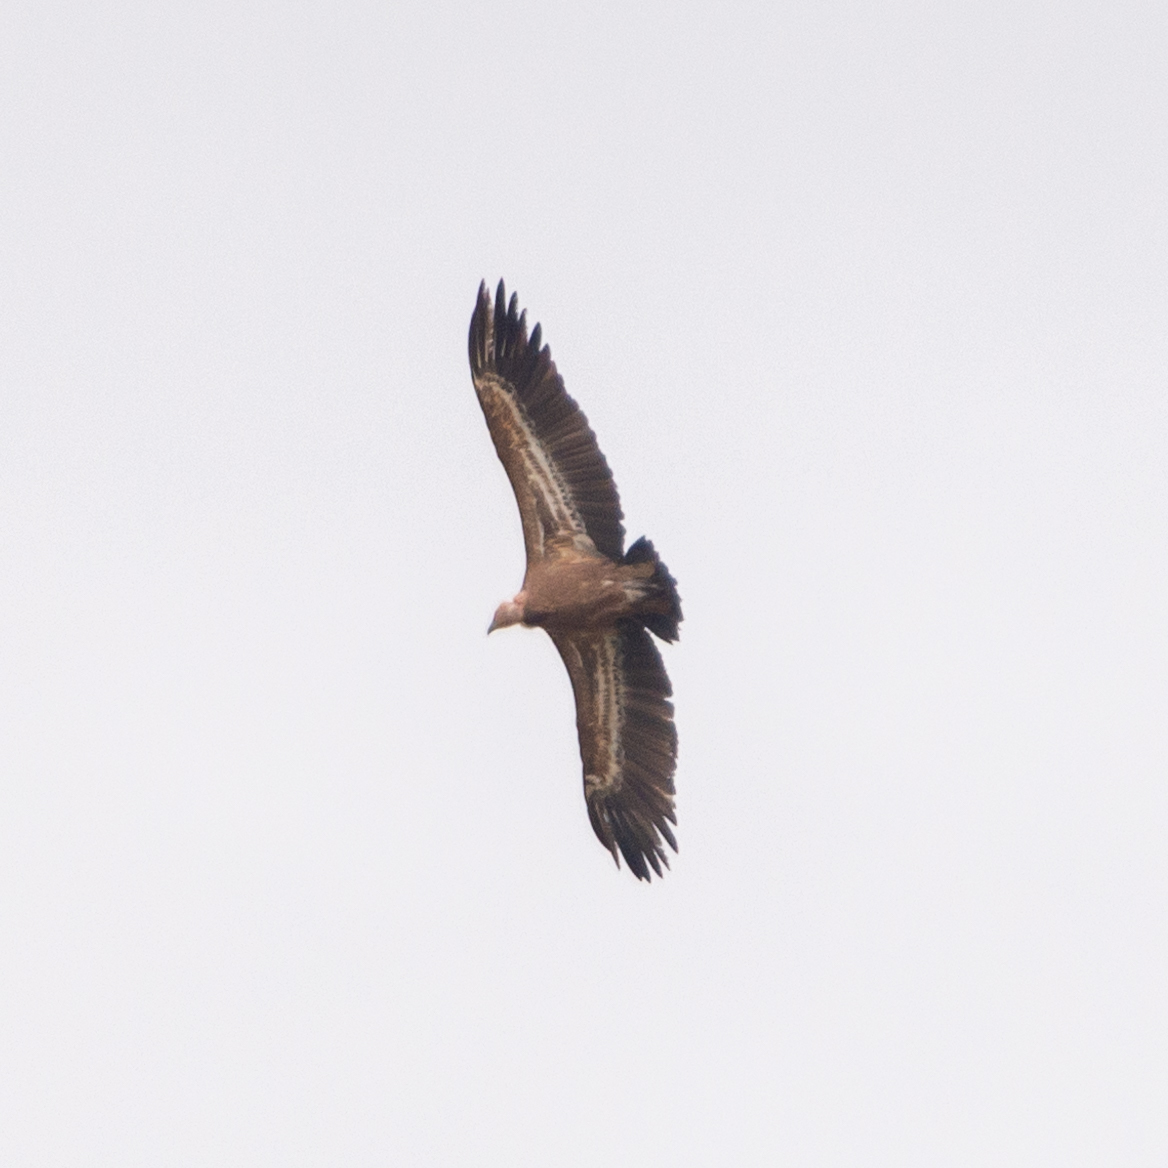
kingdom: Animalia
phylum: Chordata
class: Aves
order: Accipitriformes
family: Accipitridae
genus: Gyps
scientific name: Gyps fulvus
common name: Griffon vulture
